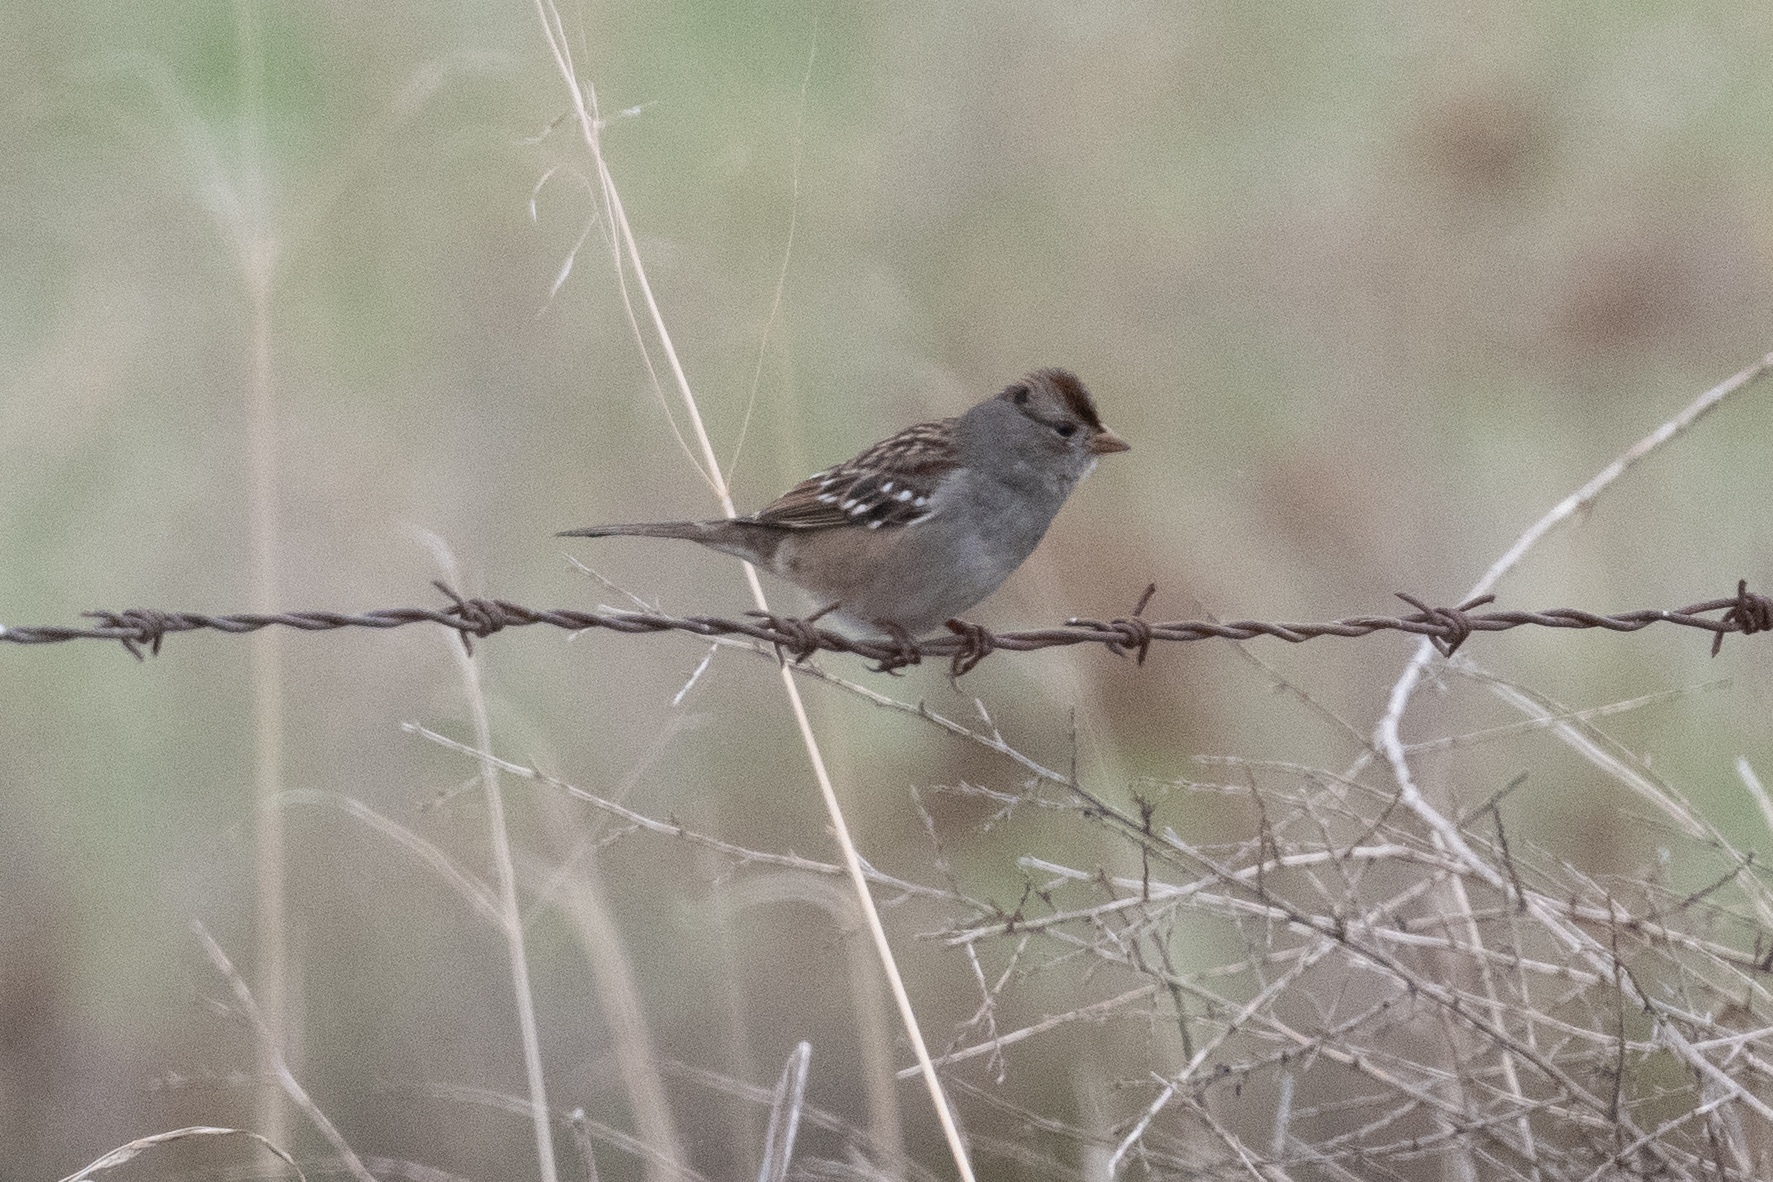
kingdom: Animalia
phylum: Chordata
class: Aves
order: Passeriformes
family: Passerellidae
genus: Zonotrichia
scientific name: Zonotrichia leucophrys
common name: White-crowned sparrow
